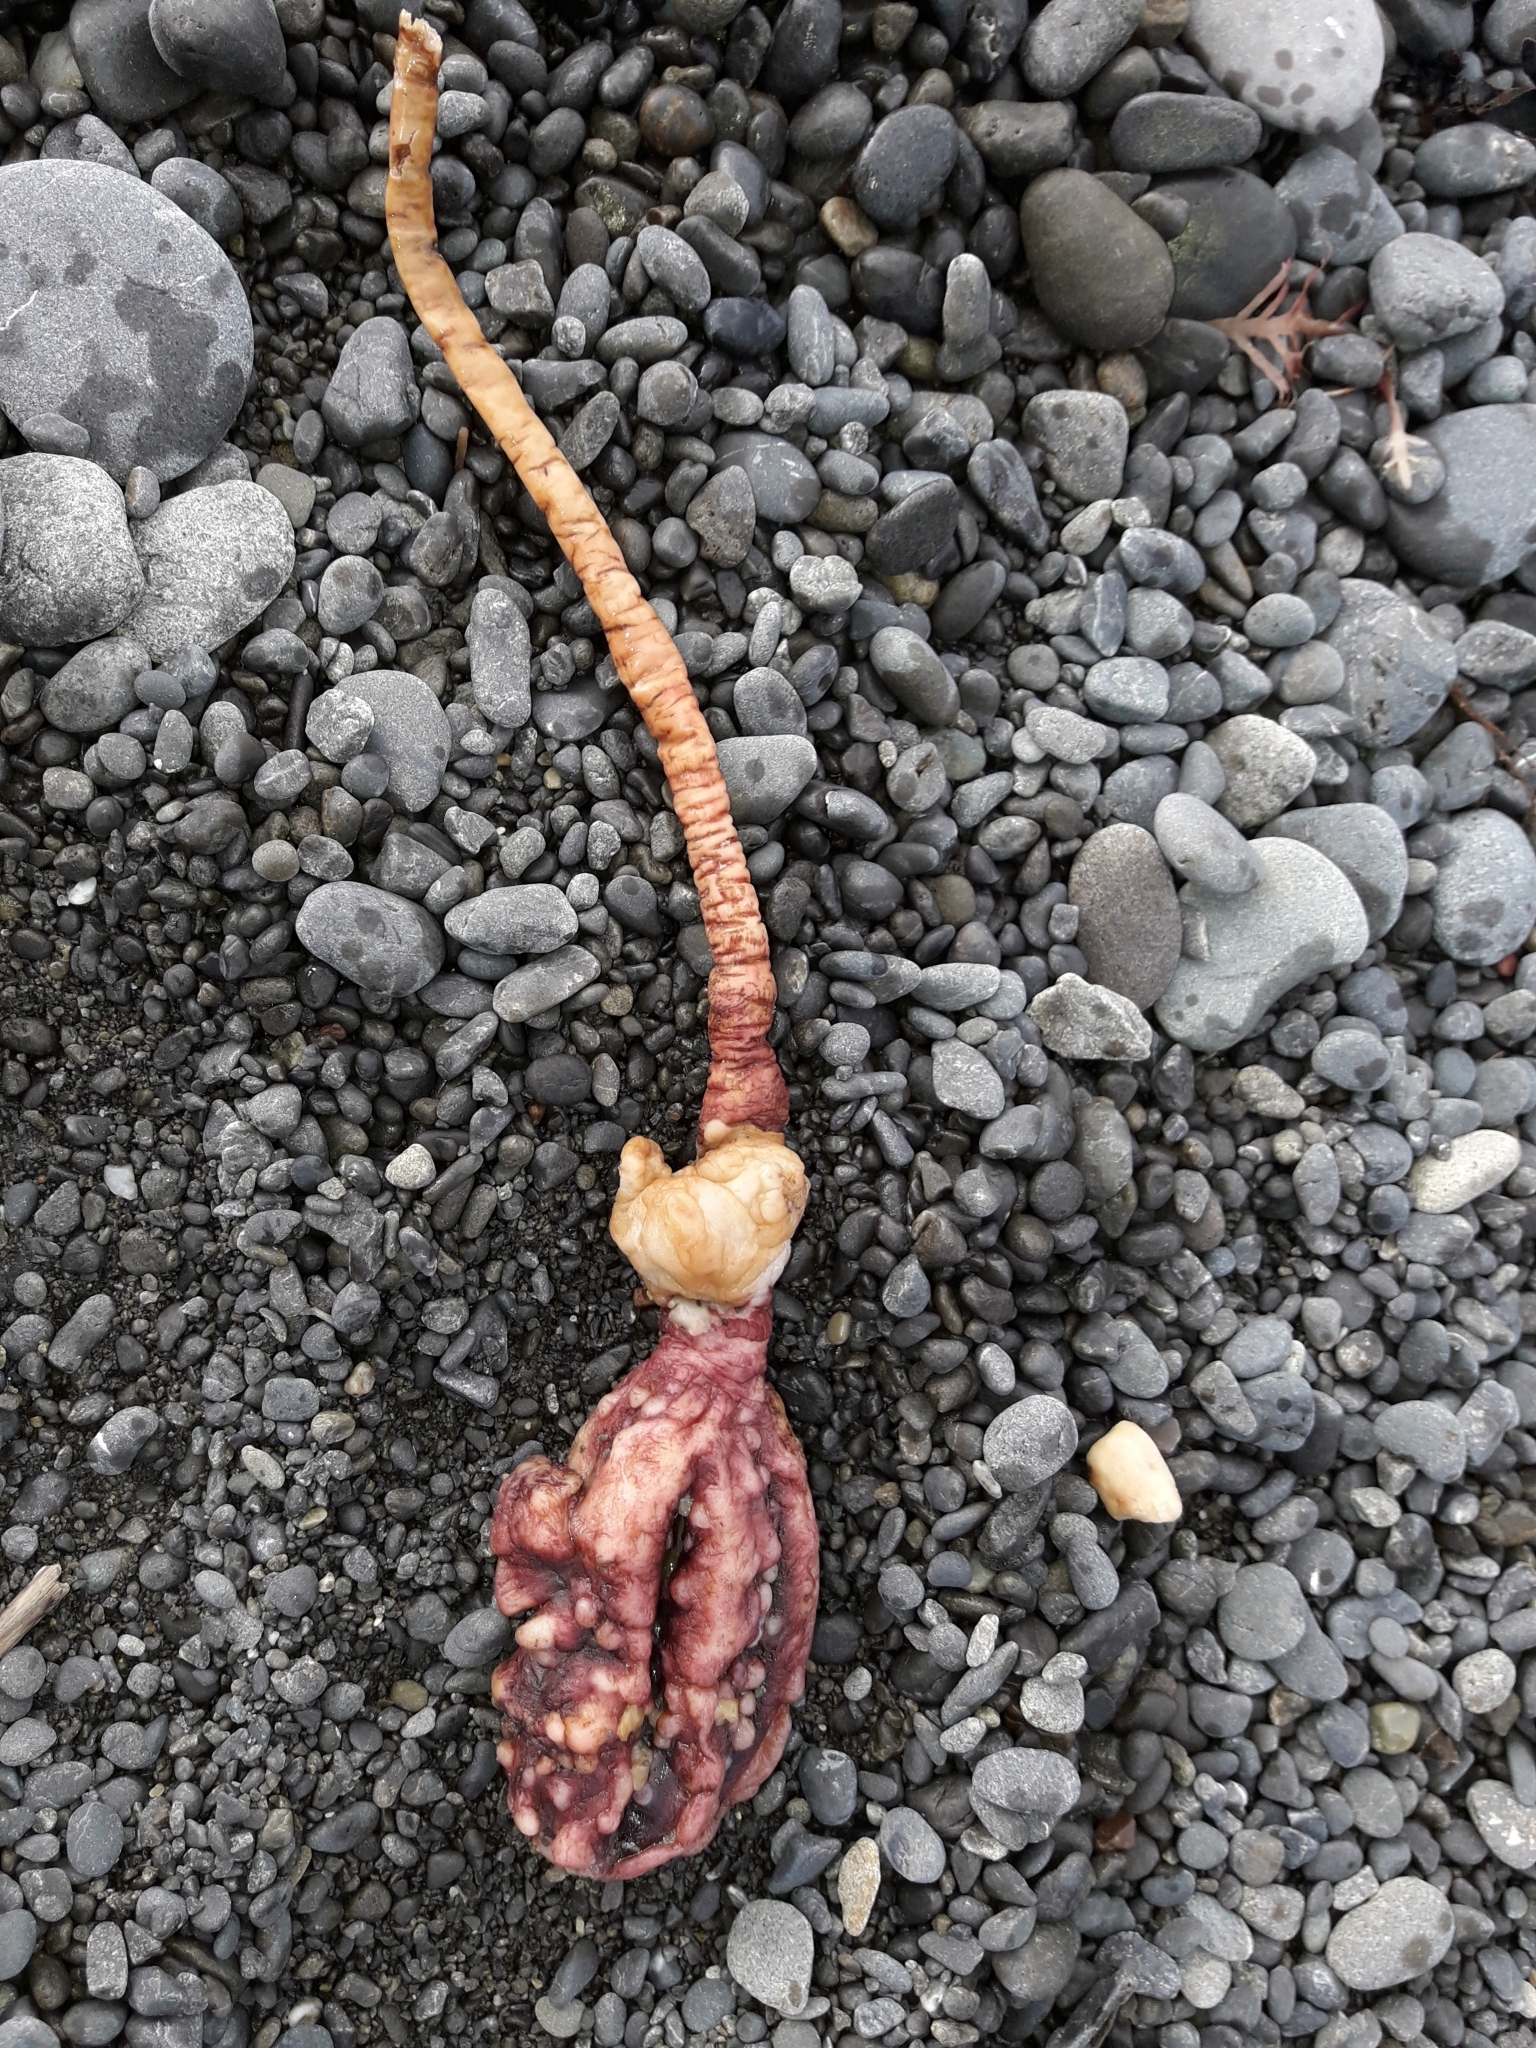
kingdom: Animalia
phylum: Chordata
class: Ascidiacea
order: Stolidobranchia
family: Pyuridae
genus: Pyura
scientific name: Pyura pachydermatina
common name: Sea tulip
